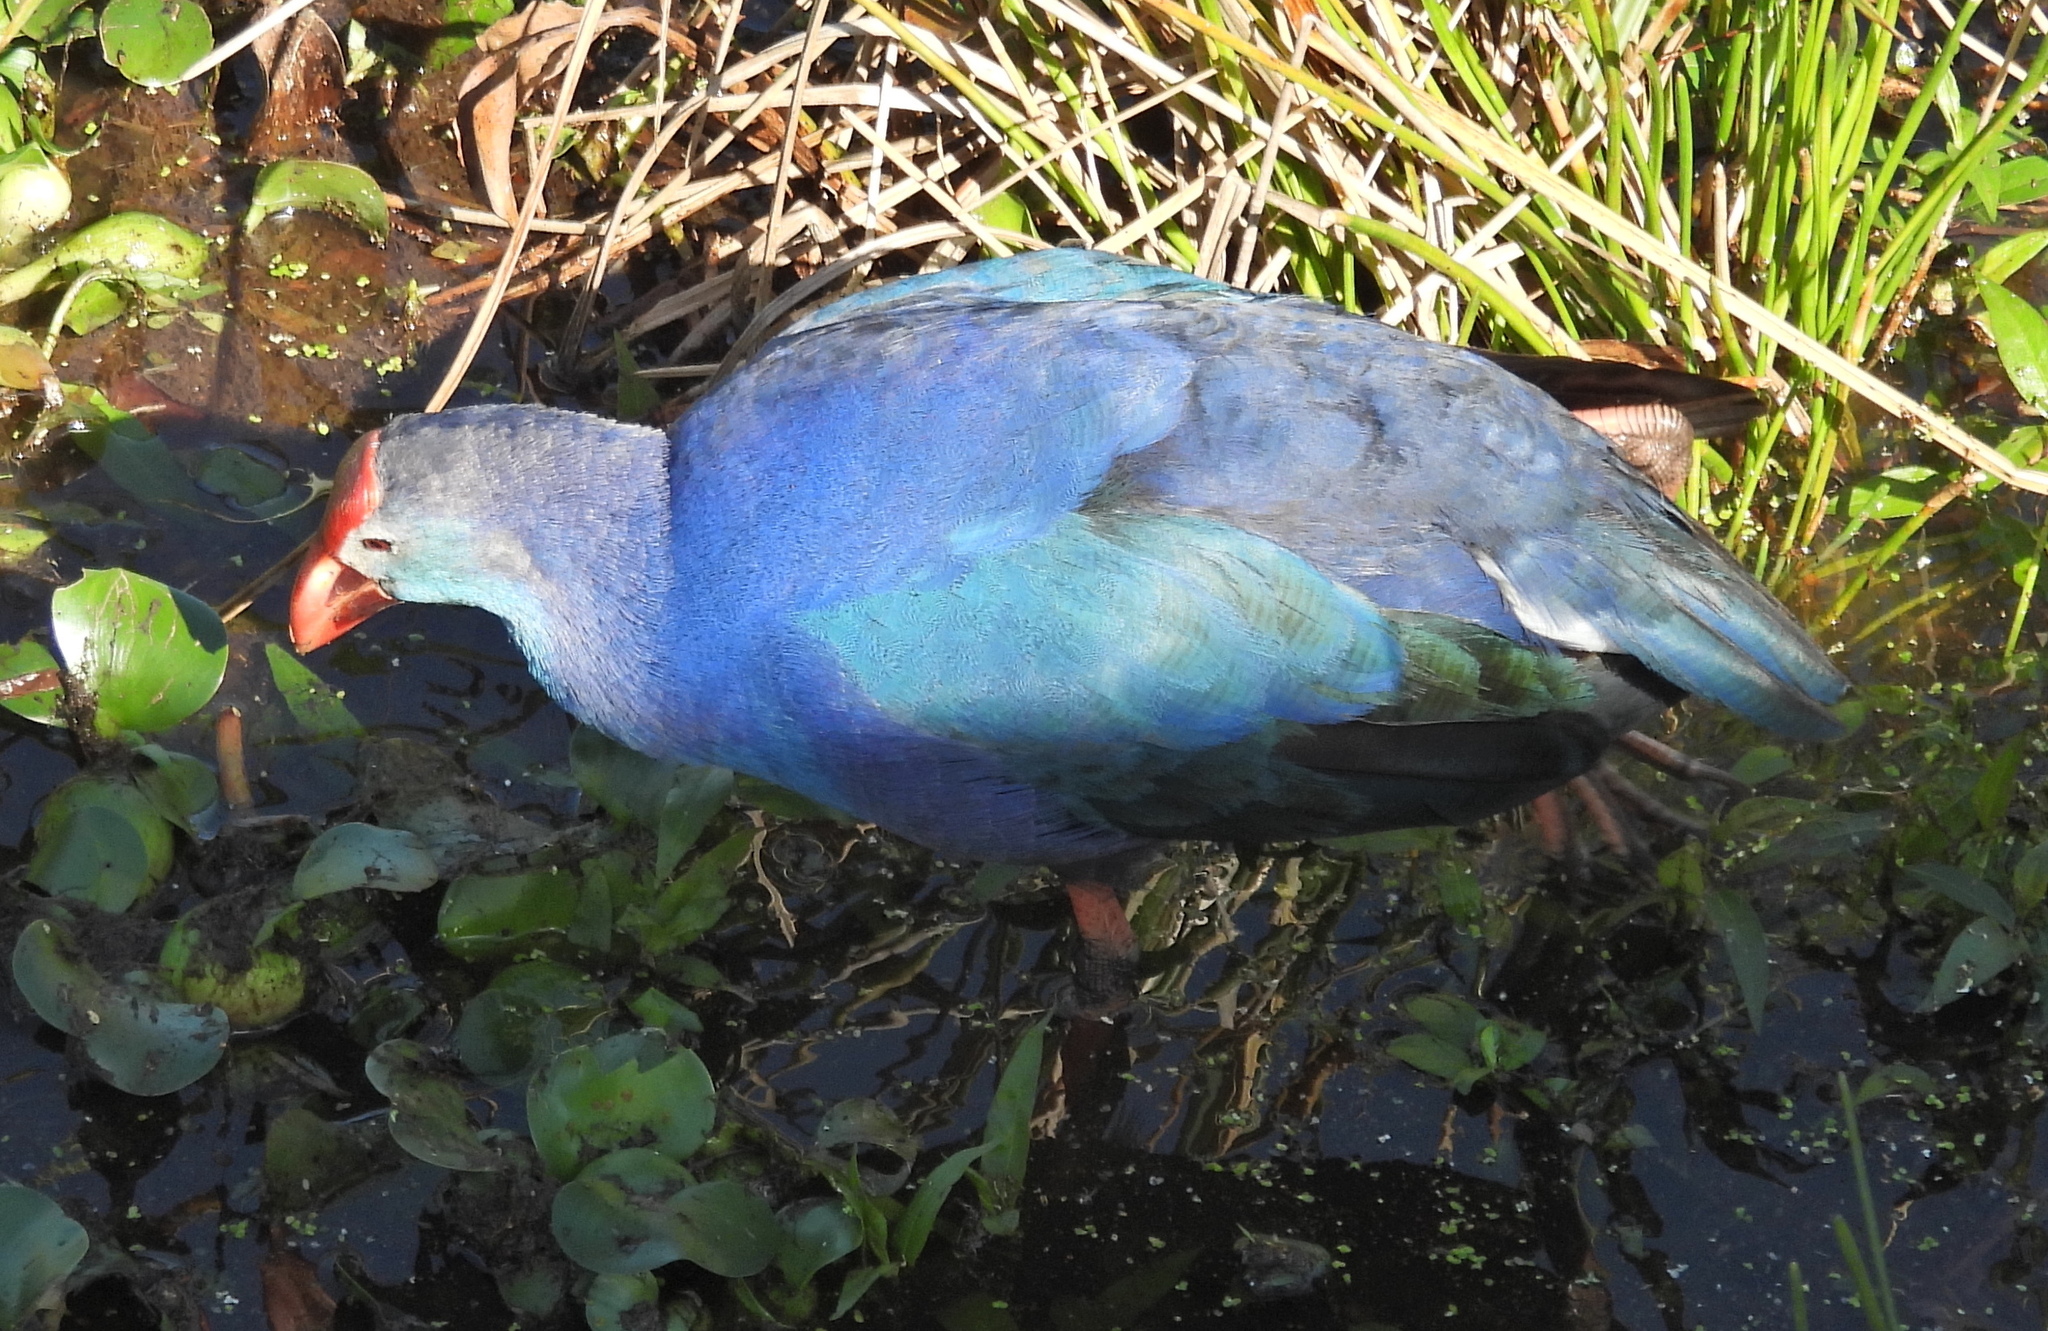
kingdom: Animalia
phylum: Chordata
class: Aves
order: Gruiformes
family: Rallidae
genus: Porphyrio
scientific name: Porphyrio porphyrio
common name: Purple swamphen
